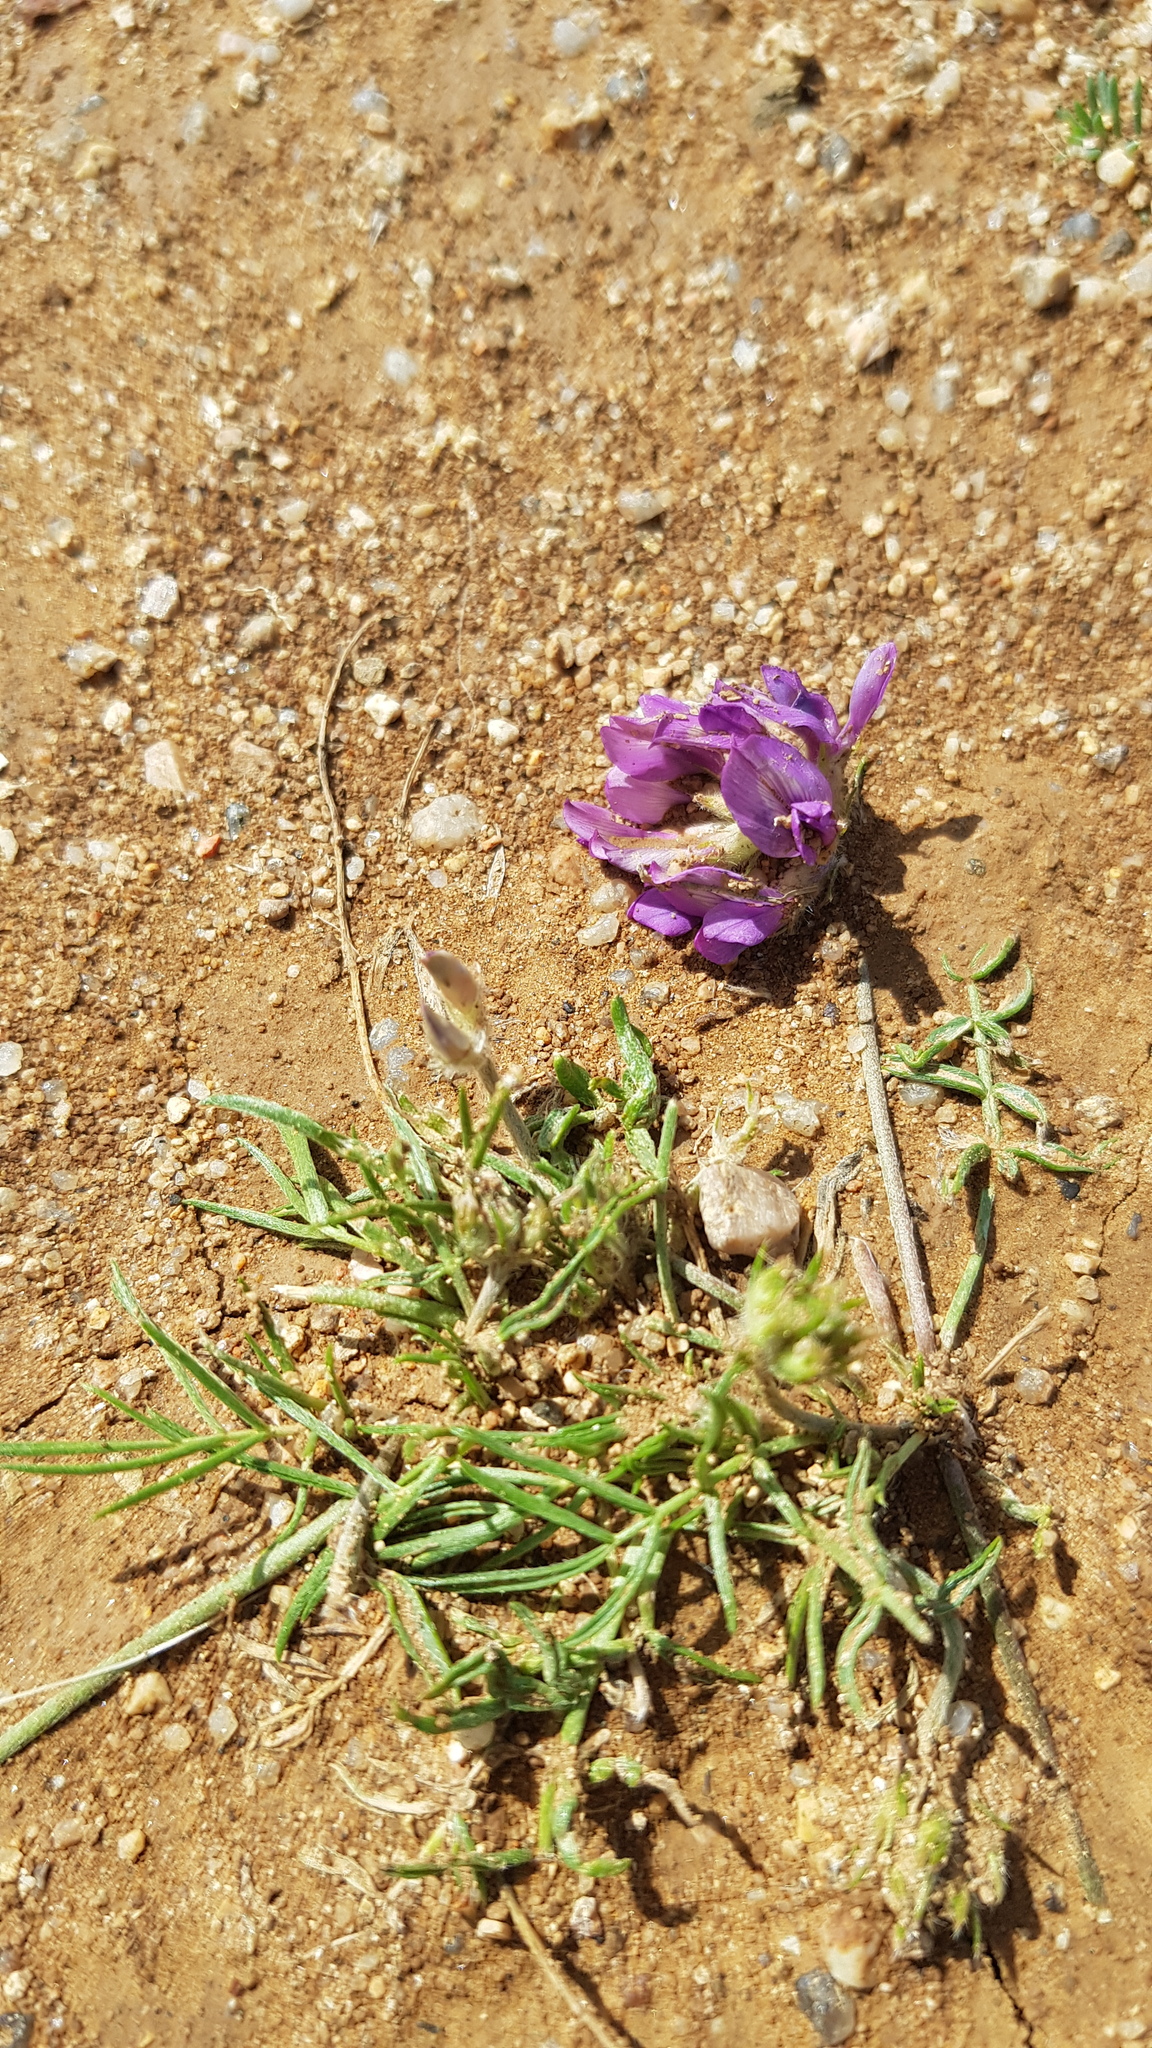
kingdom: Plantae
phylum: Tracheophyta
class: Magnoliopsida
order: Fabales
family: Fabaceae
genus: Oxytropis
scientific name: Oxytropis pumila
